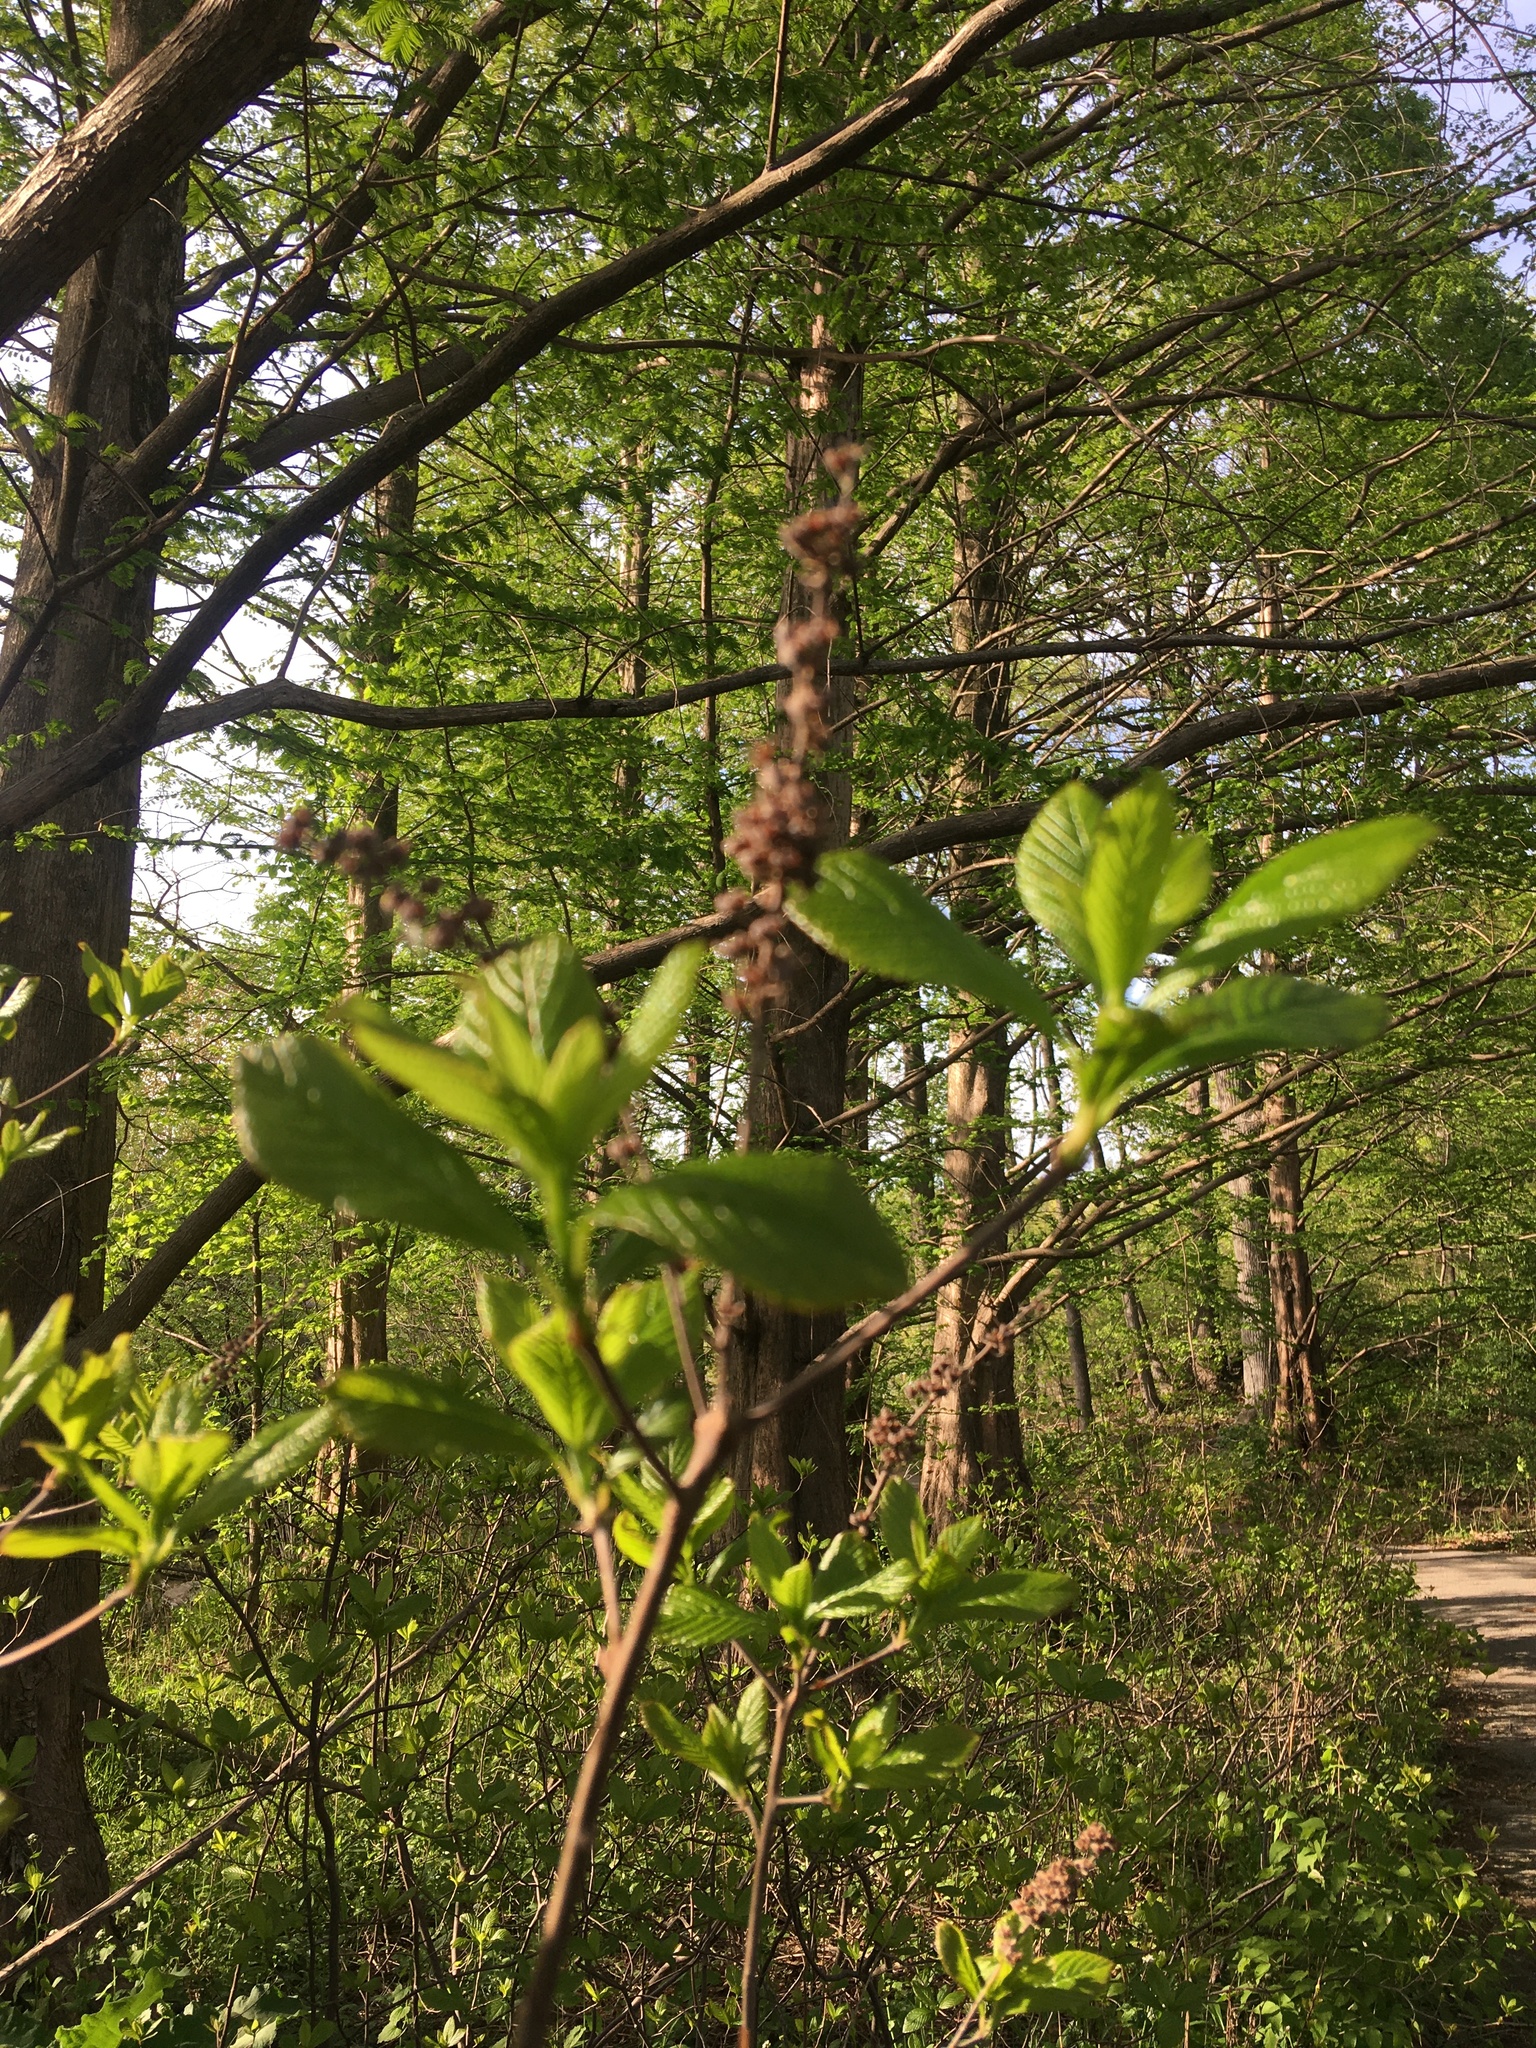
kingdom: Plantae
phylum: Tracheophyta
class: Magnoliopsida
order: Ericales
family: Clethraceae
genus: Clethra
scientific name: Clethra alnifolia
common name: Sweet pepperbush
